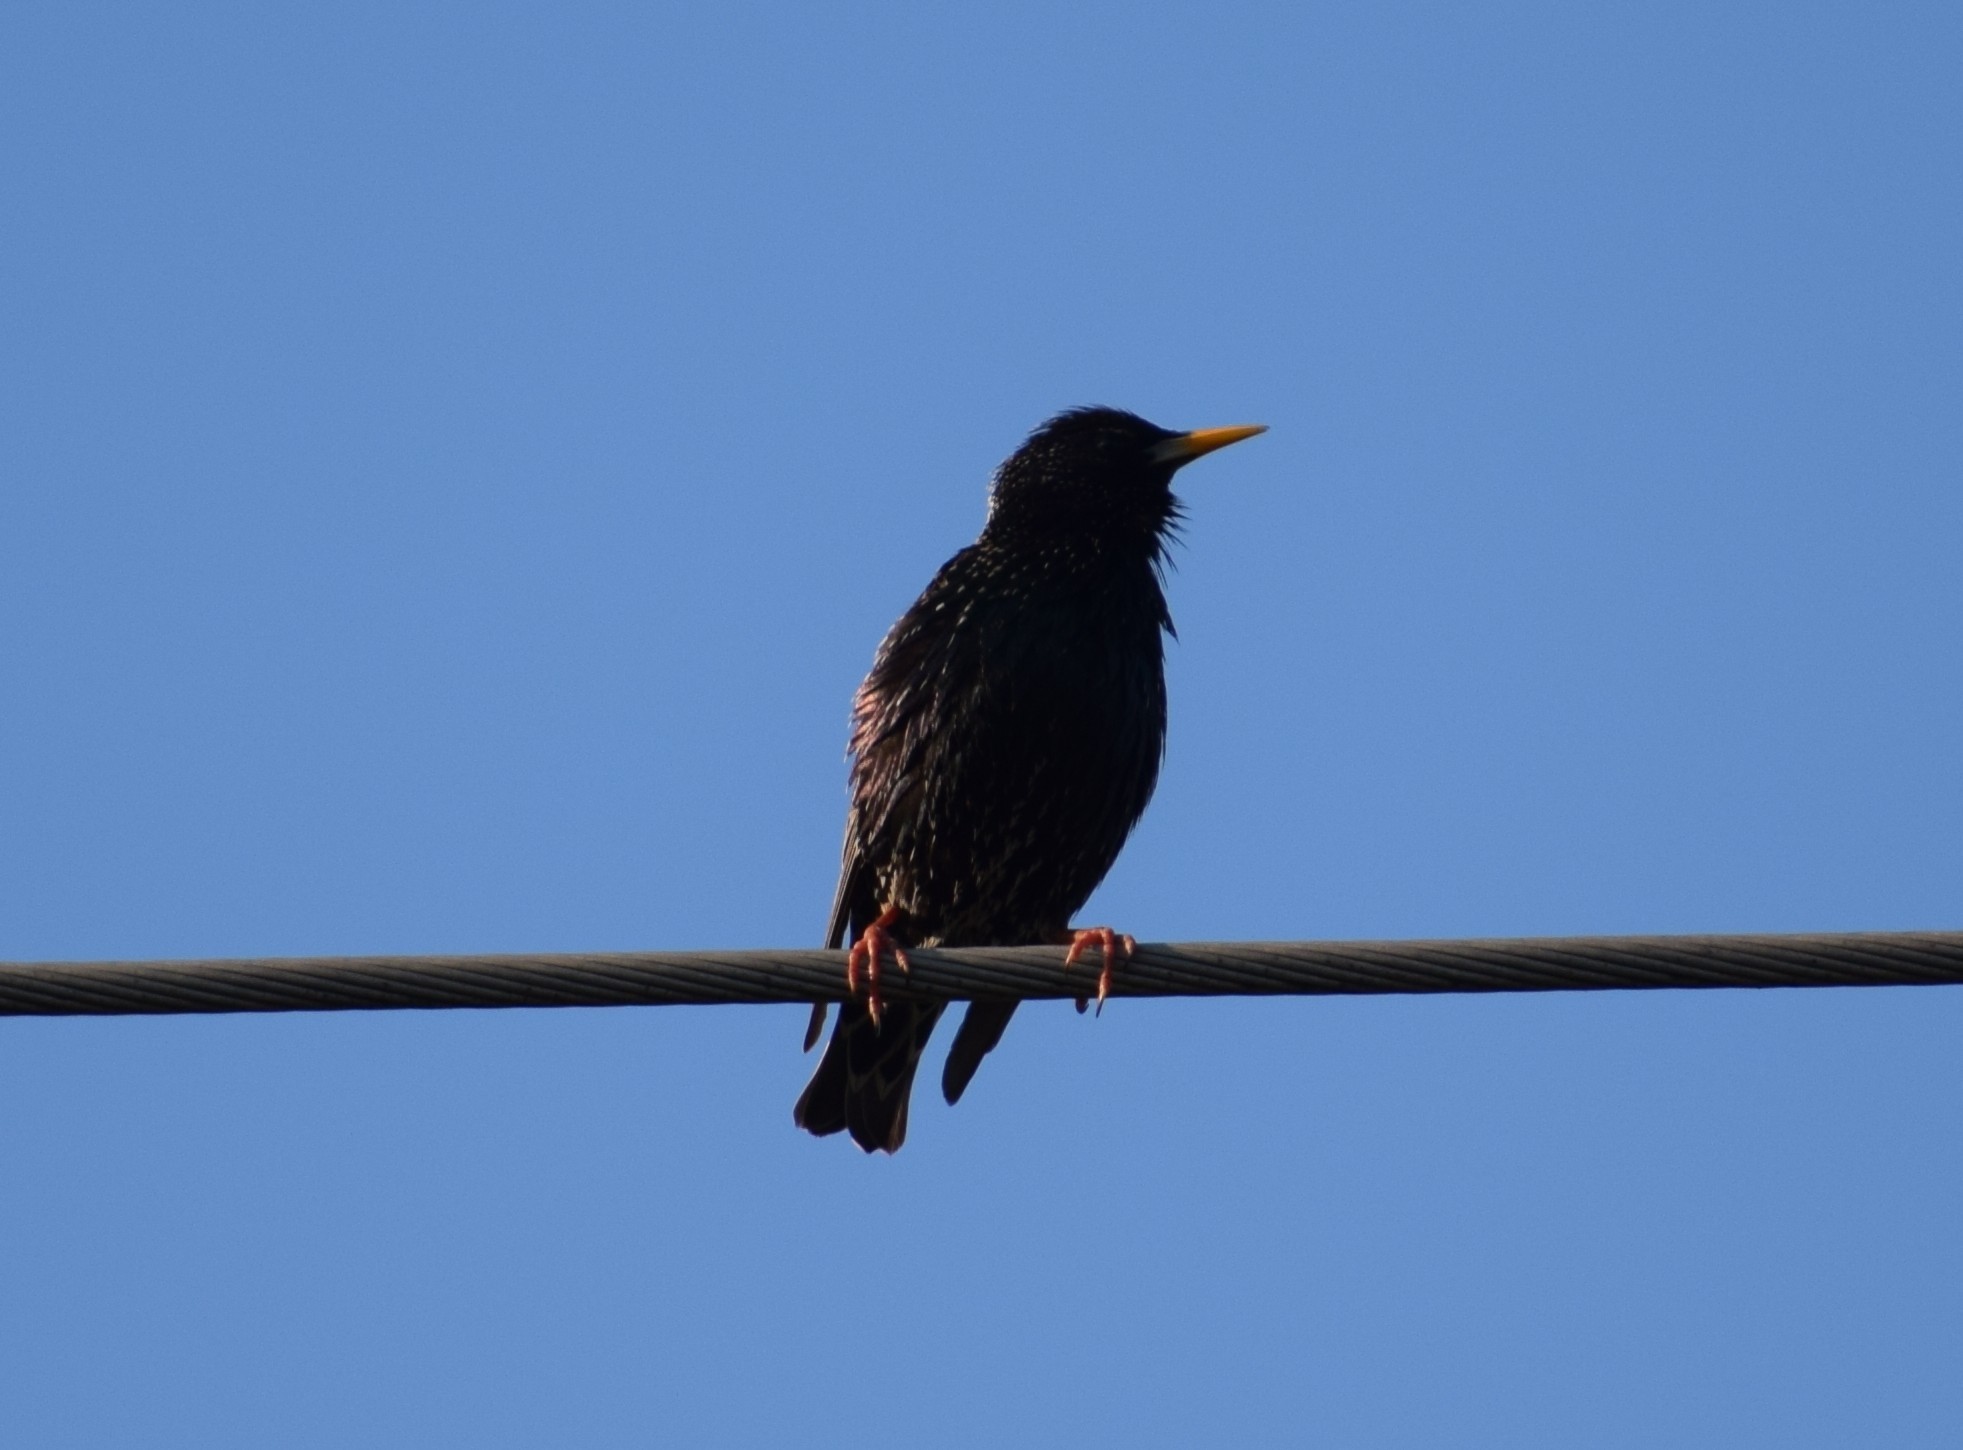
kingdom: Animalia
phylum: Chordata
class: Aves
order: Passeriformes
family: Sturnidae
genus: Sturnus
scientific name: Sturnus vulgaris
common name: Common starling
